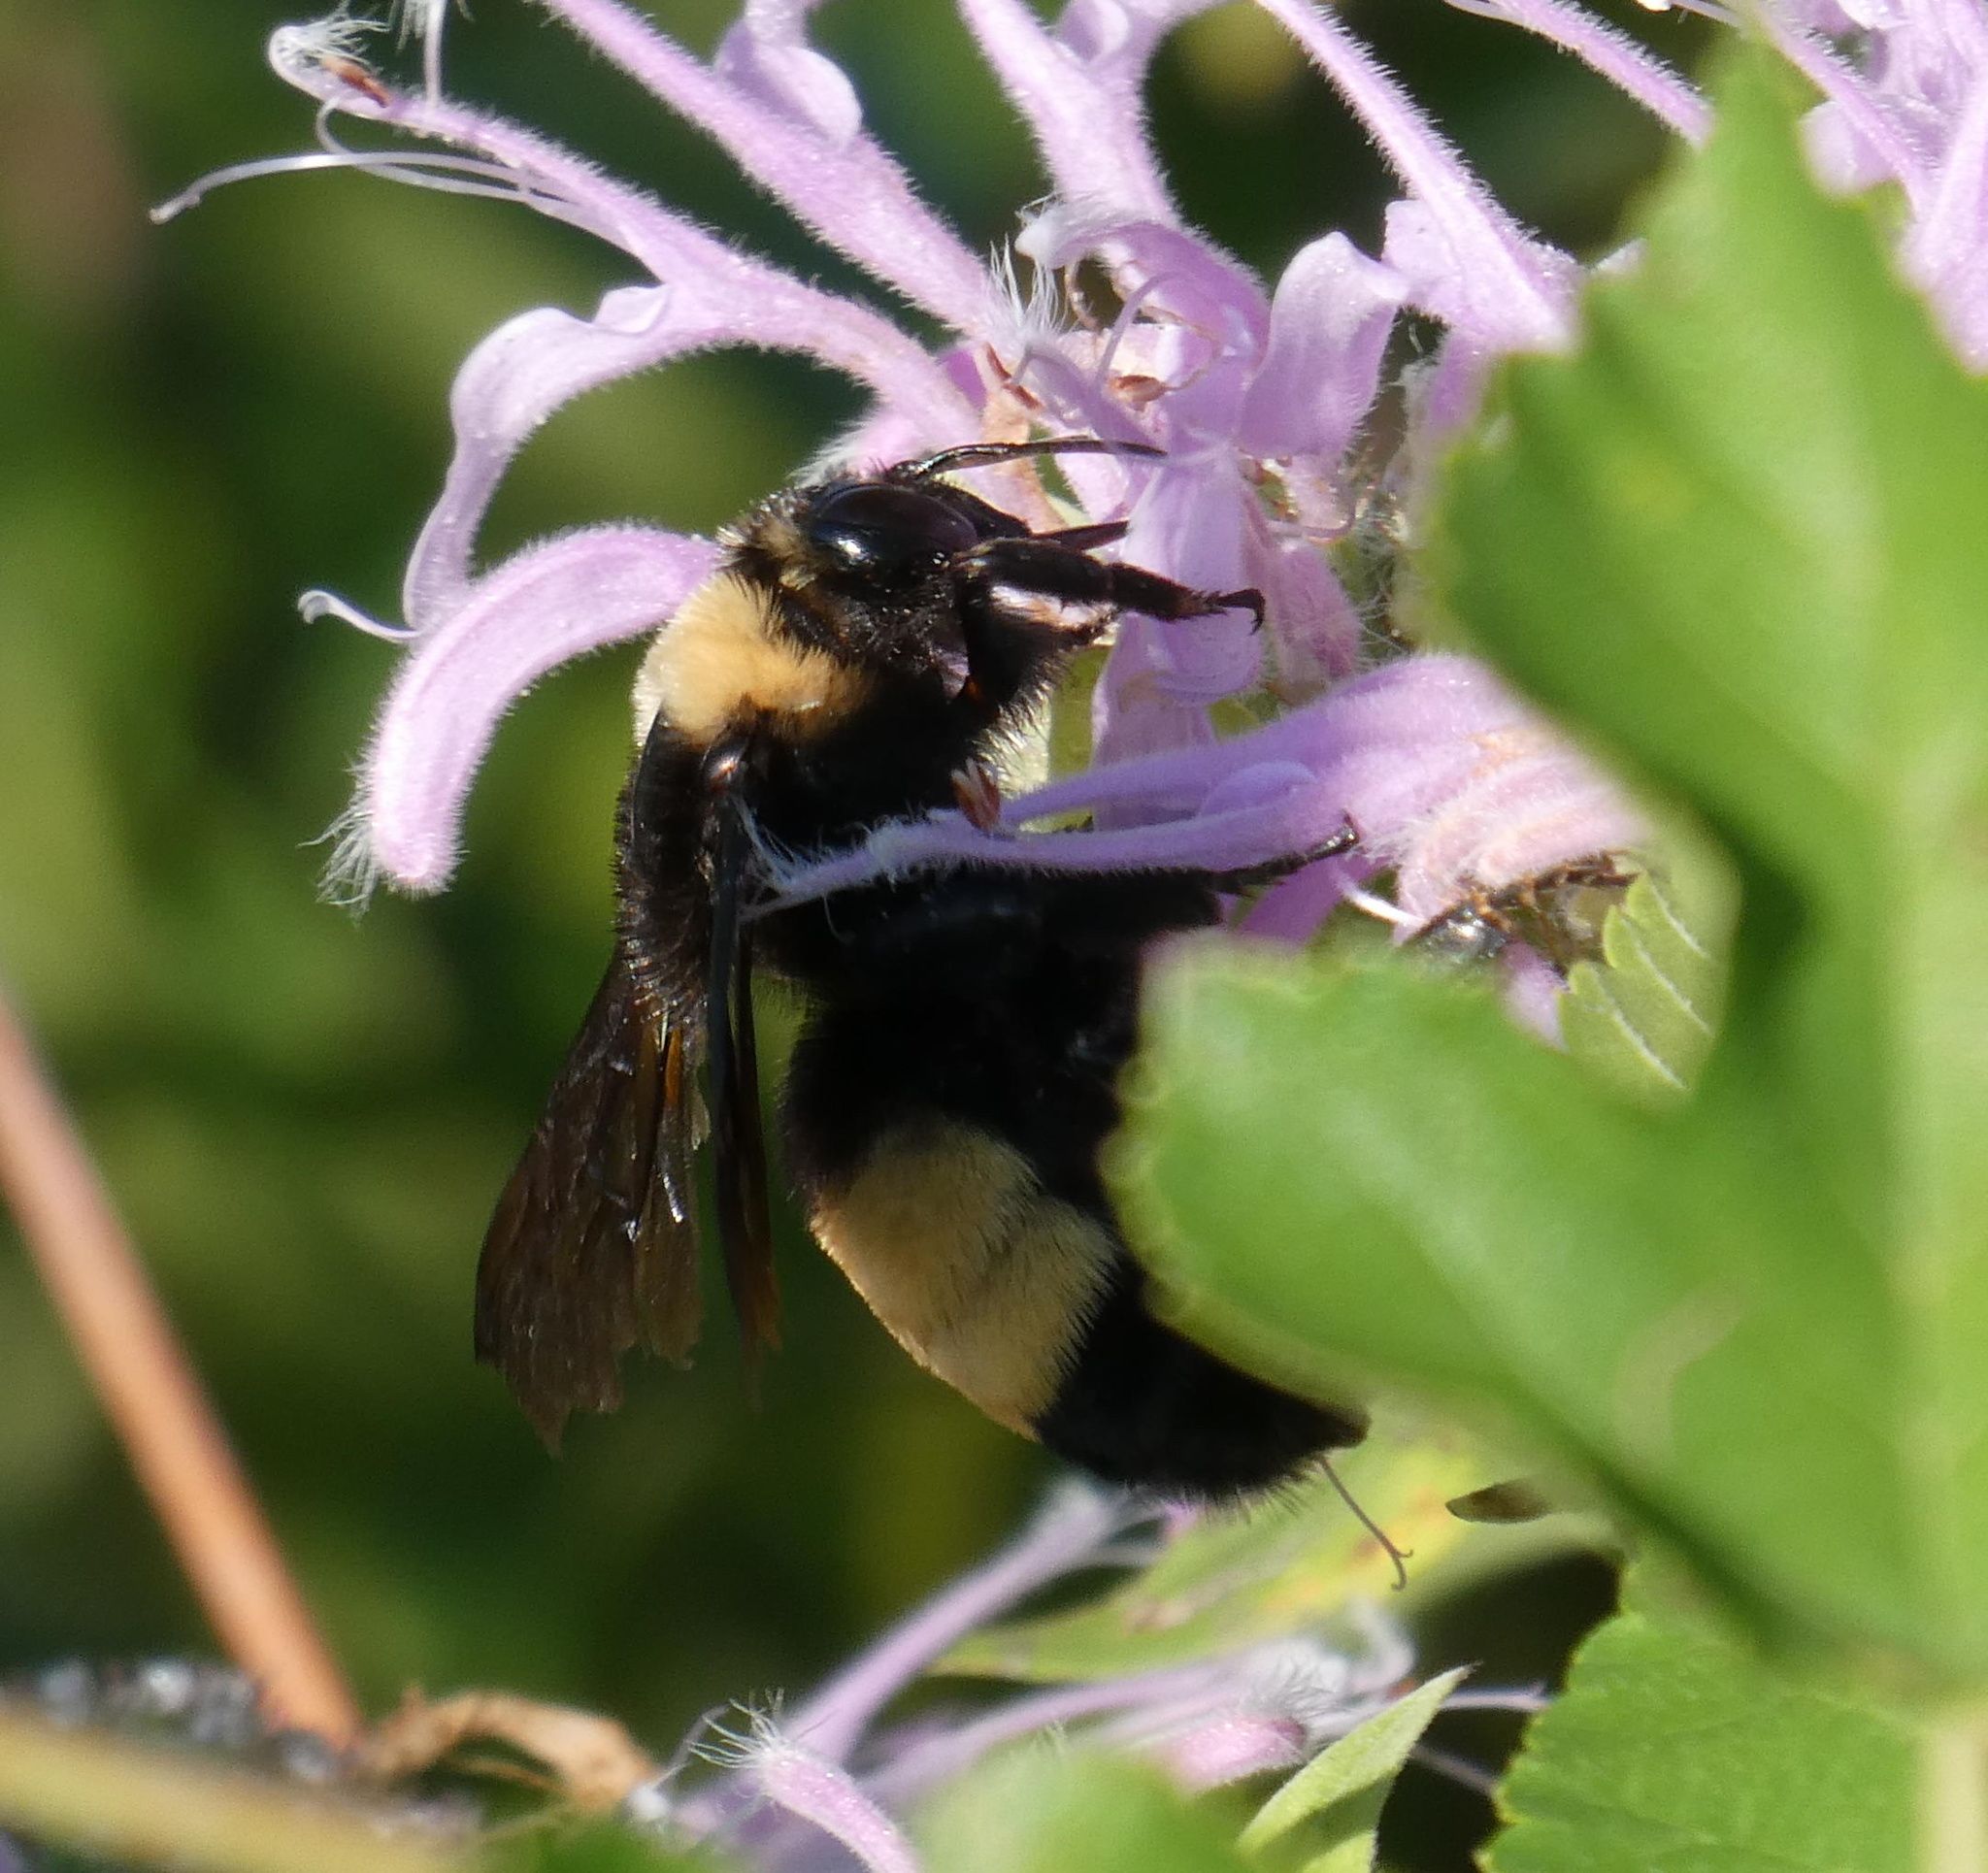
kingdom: Animalia
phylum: Arthropoda
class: Insecta
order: Hymenoptera
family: Apidae
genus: Bombus
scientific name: Bombus auricomus
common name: Black and gold bumble bee
